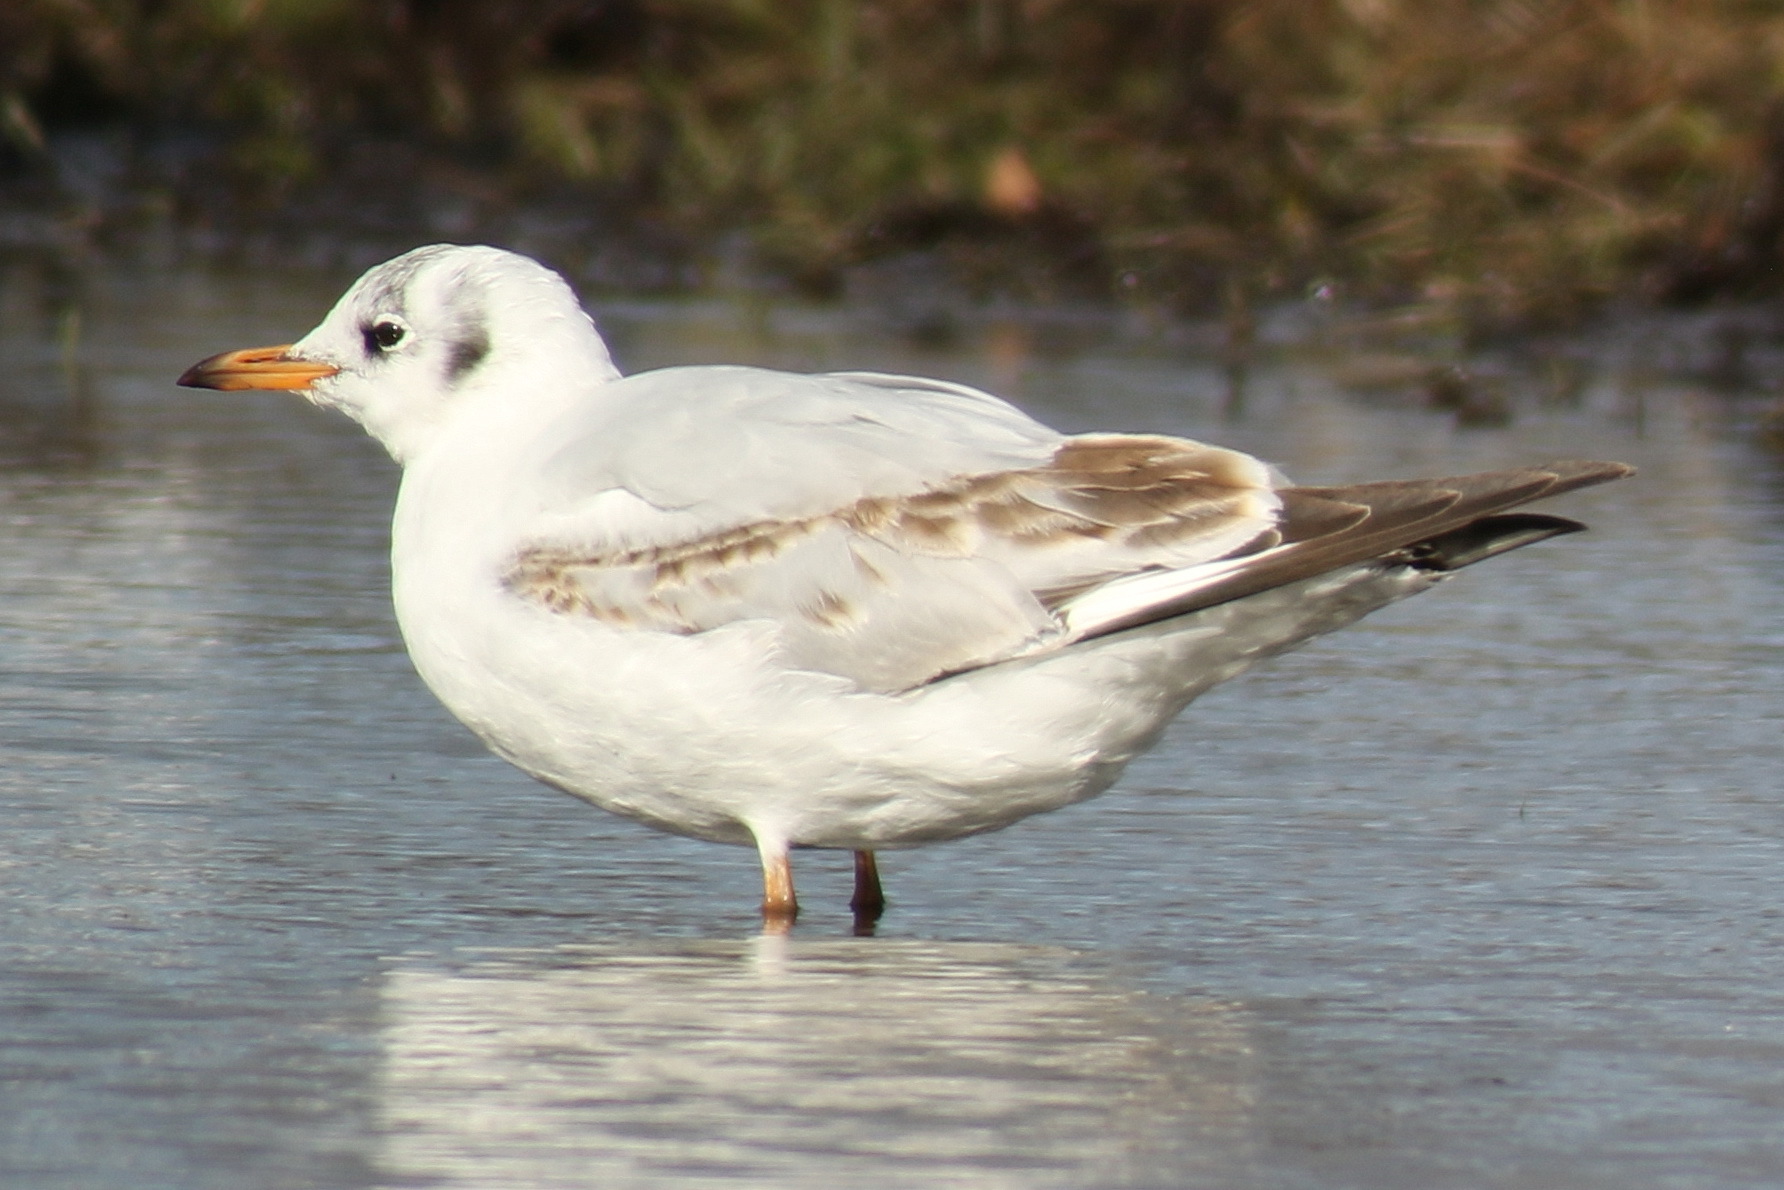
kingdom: Animalia
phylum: Chordata
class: Aves
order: Charadriiformes
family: Laridae
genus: Chroicocephalus
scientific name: Chroicocephalus ridibundus
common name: Black-headed gull
